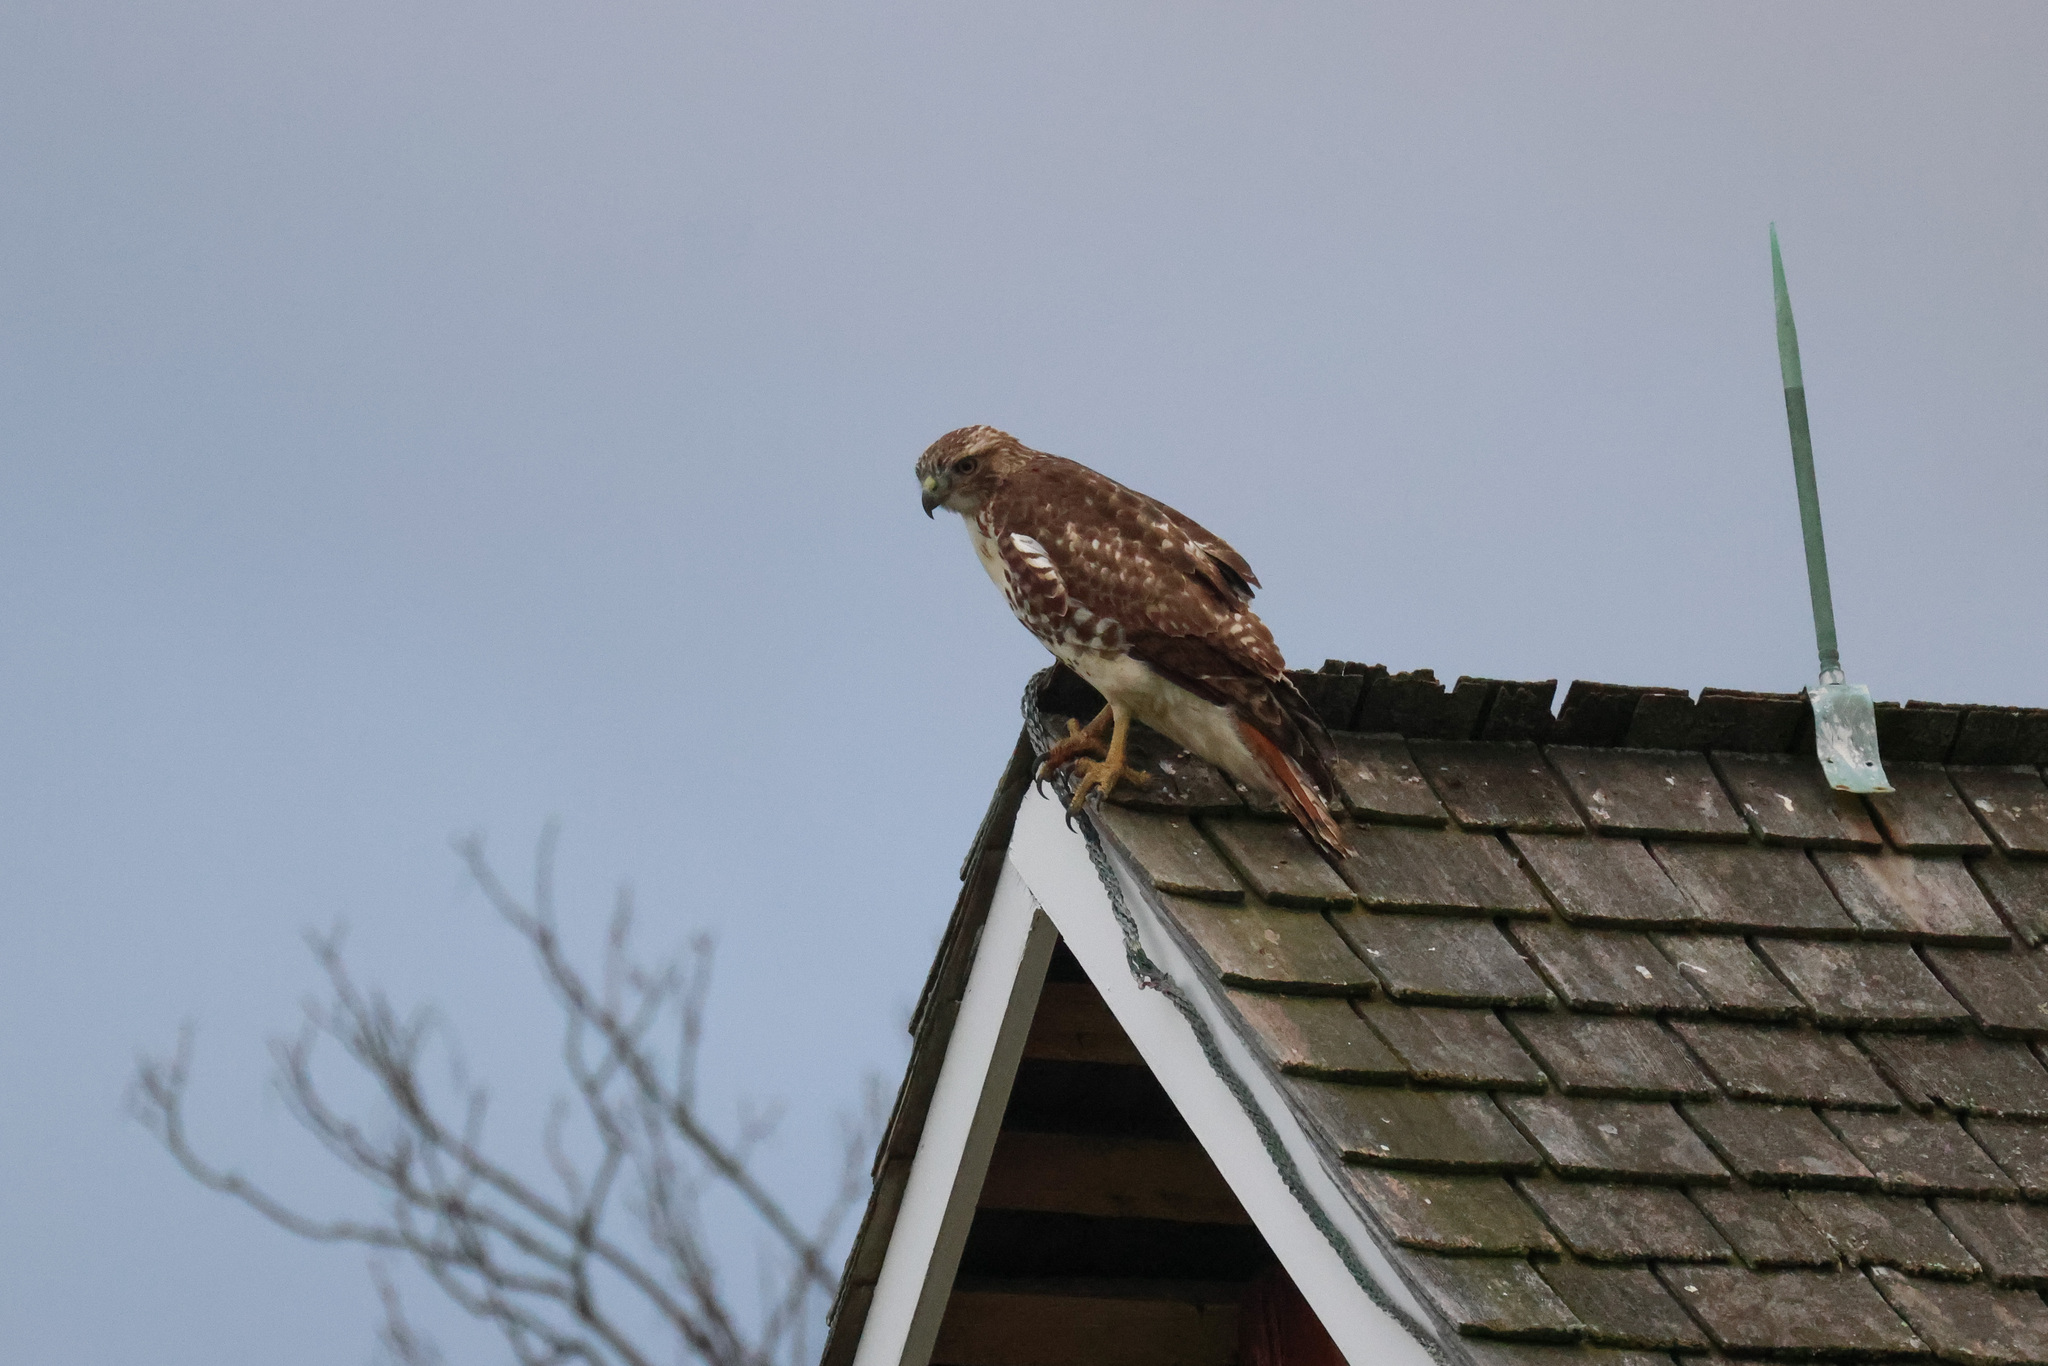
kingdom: Animalia
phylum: Chordata
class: Aves
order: Accipitriformes
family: Accipitridae
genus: Buteo
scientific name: Buteo jamaicensis
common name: Red-tailed hawk
